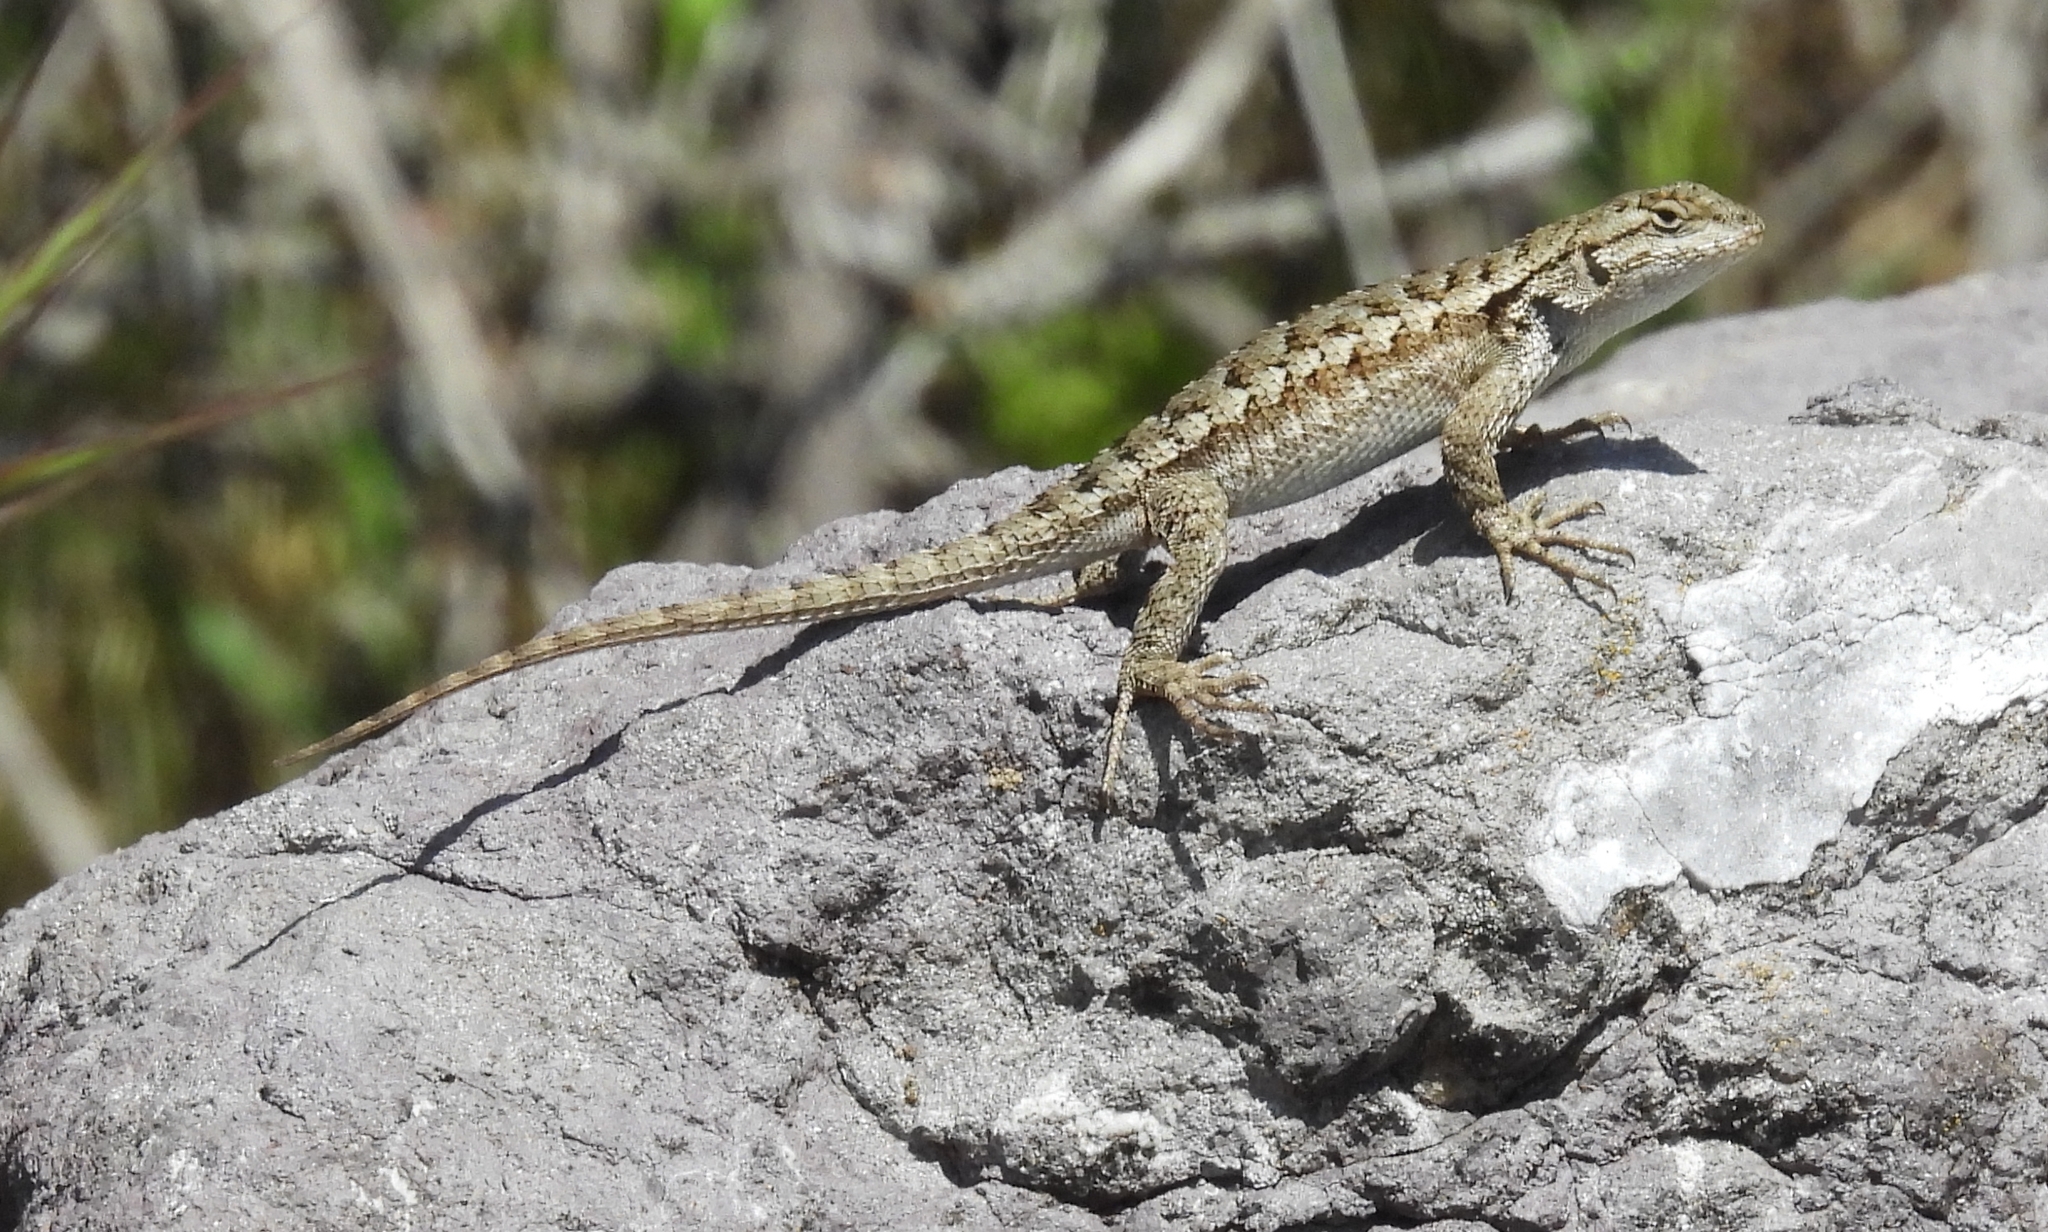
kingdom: Animalia
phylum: Chordata
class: Squamata
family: Phrynosomatidae
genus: Sceloporus
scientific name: Sceloporus occidentalis
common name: Western fence lizard
